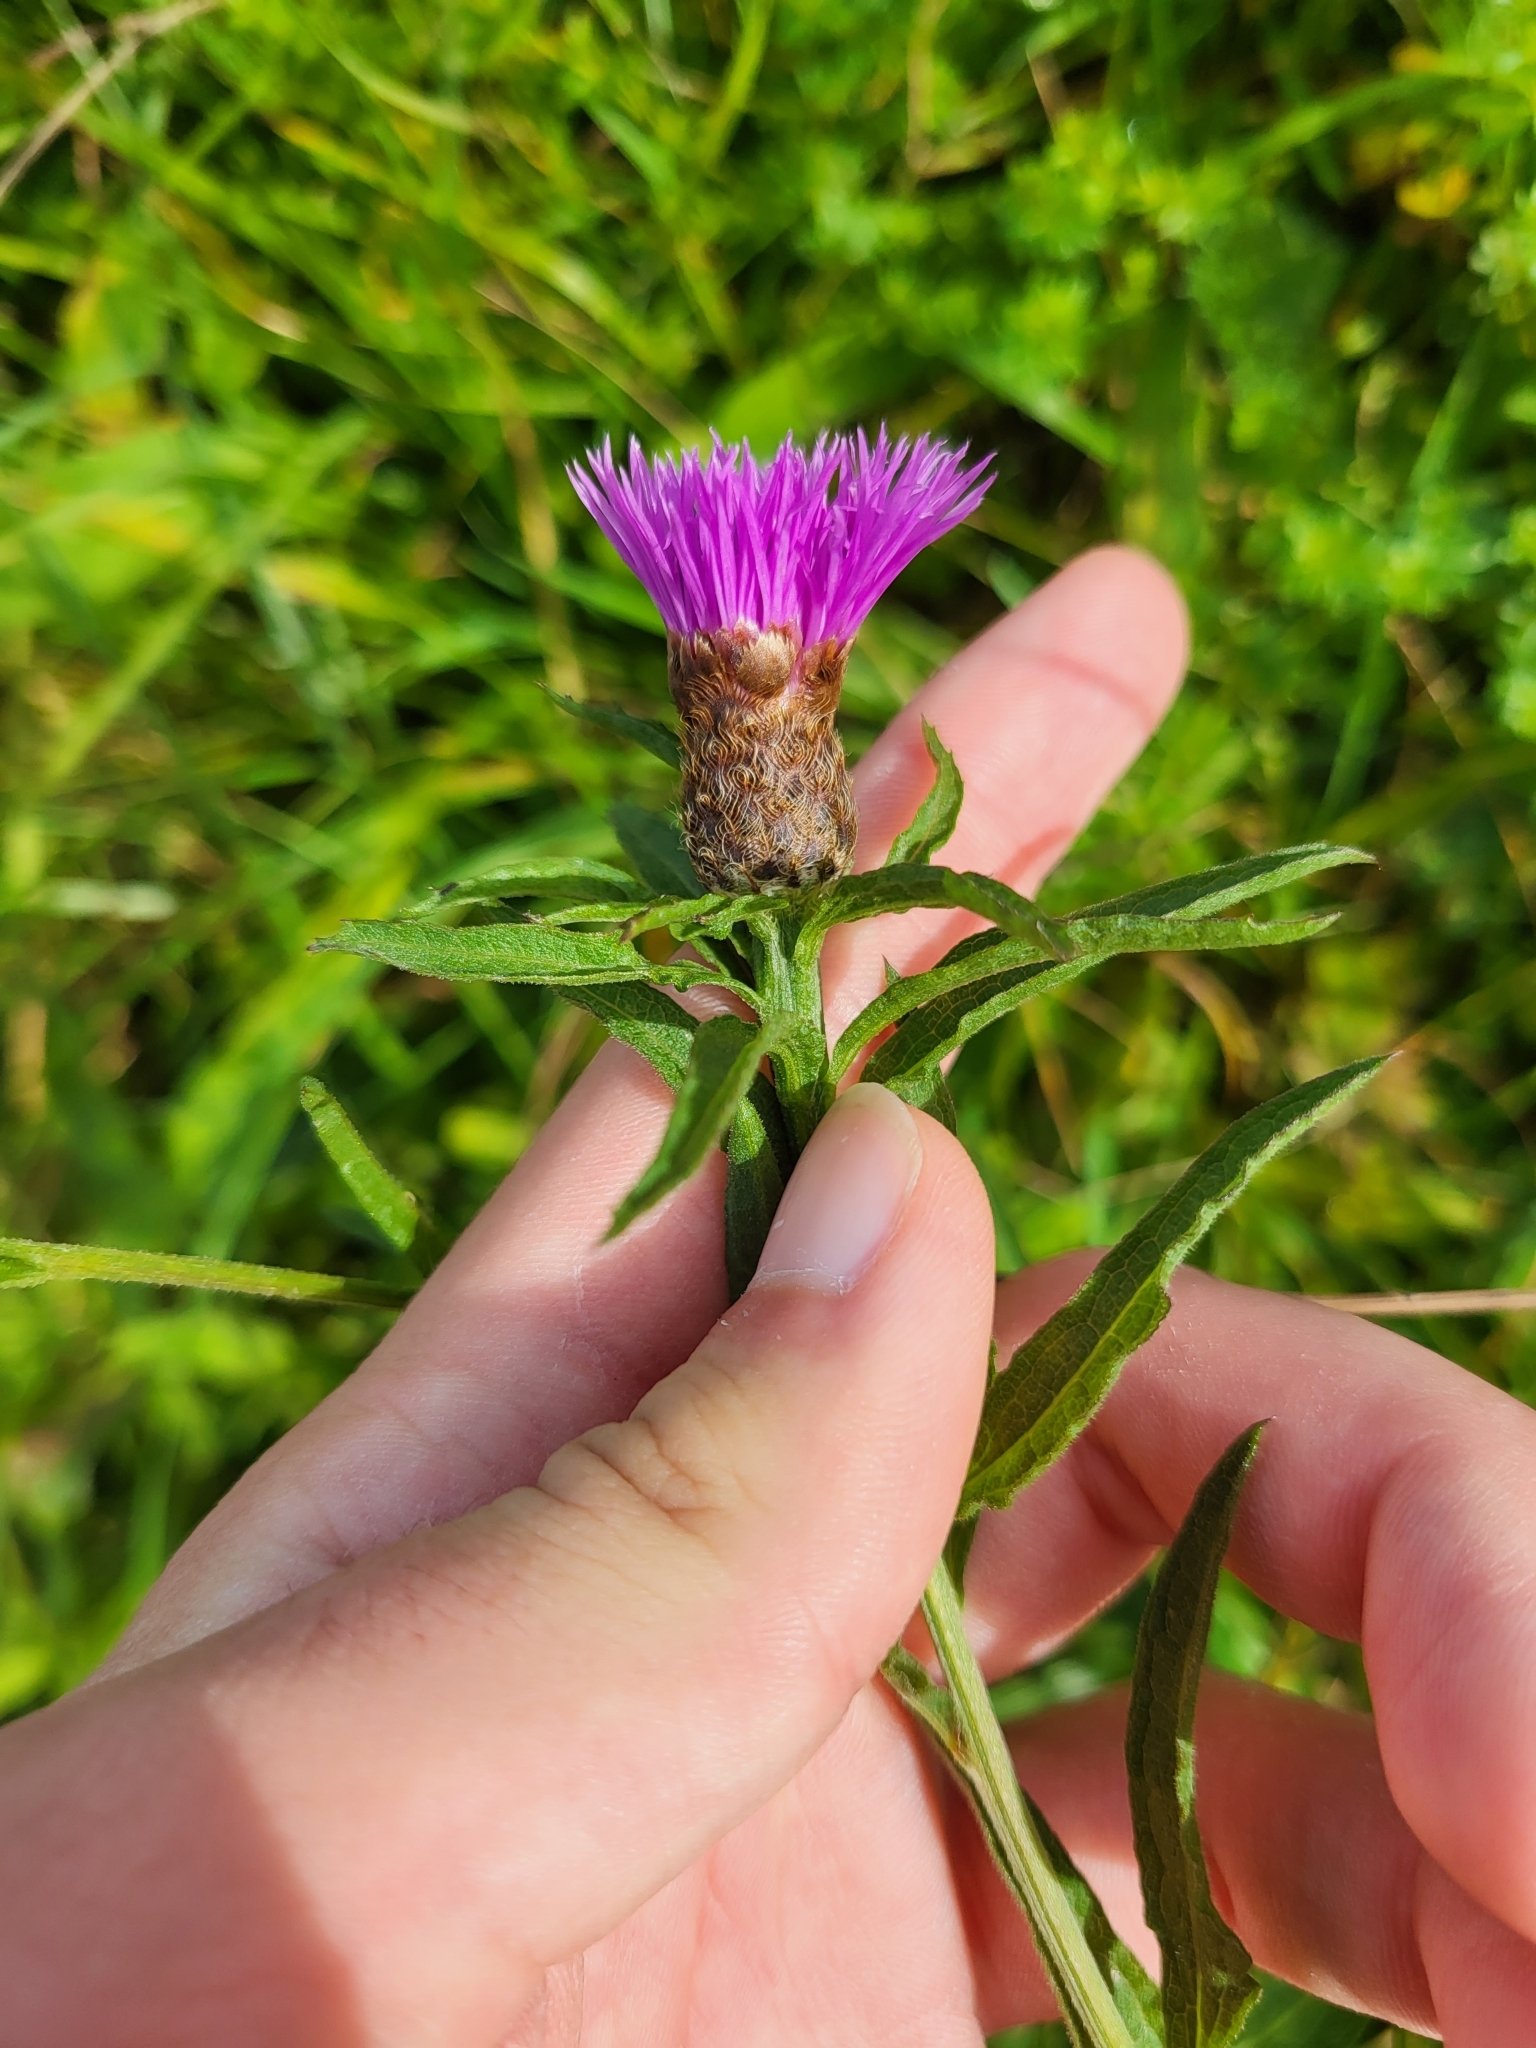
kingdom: Plantae
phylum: Tracheophyta
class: Magnoliopsida
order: Asterales
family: Asteraceae
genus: Centaurea
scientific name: Centaurea nigra
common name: Lesser knapweed
